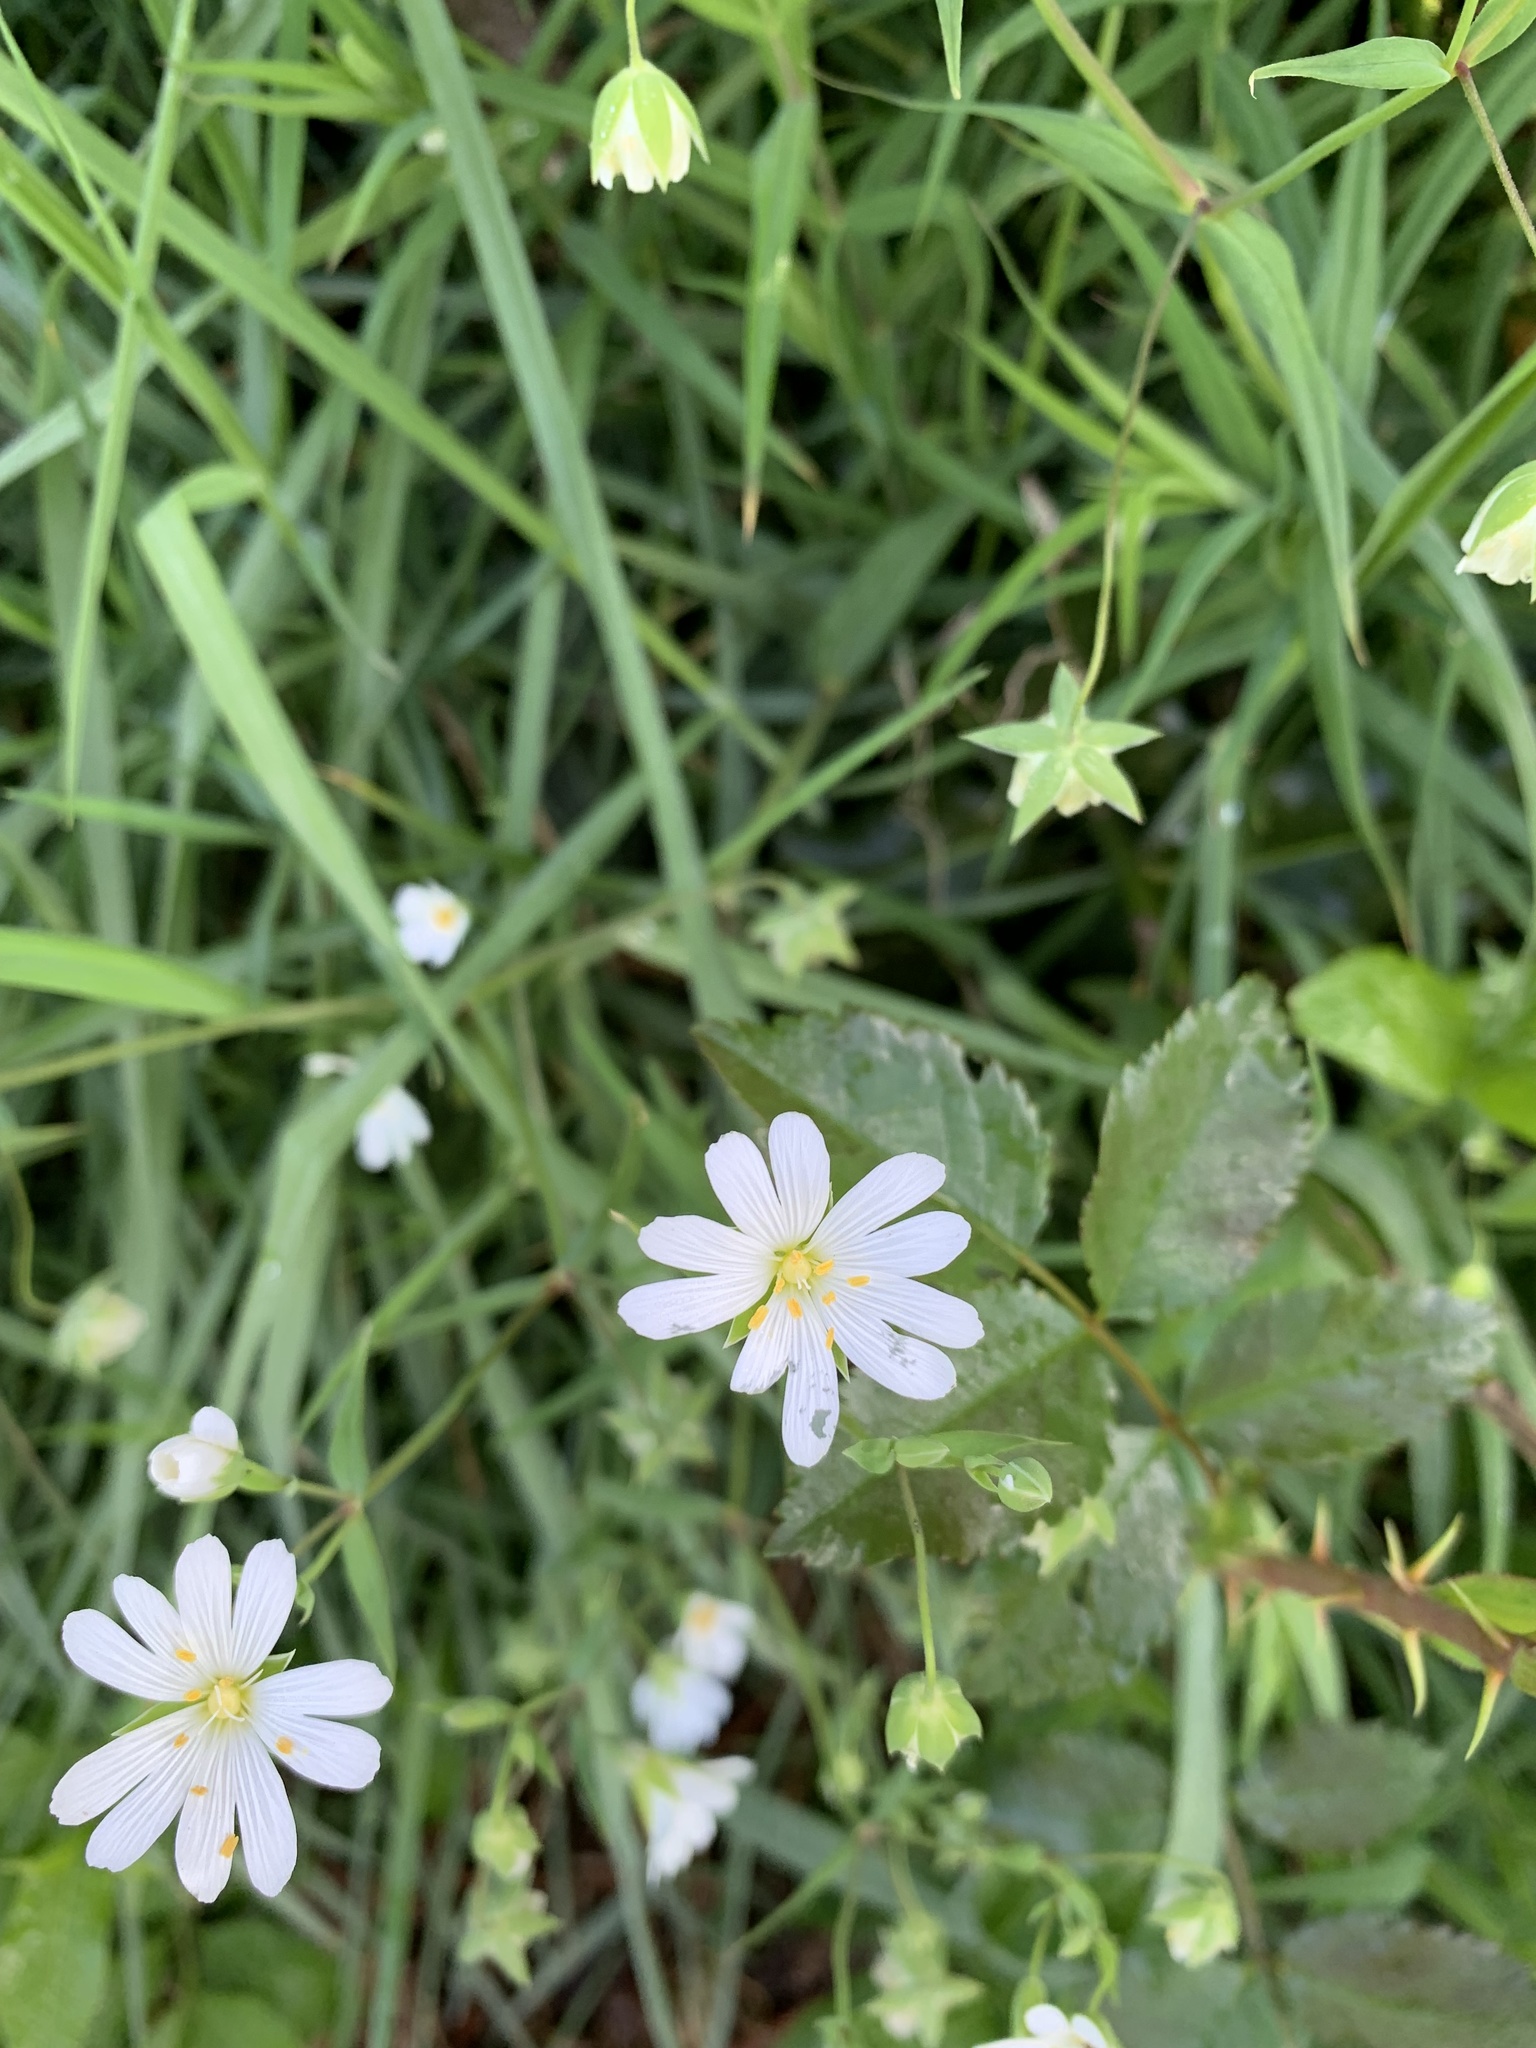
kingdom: Plantae
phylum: Tracheophyta
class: Magnoliopsida
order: Caryophyllales
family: Caryophyllaceae
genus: Rabelera
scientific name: Rabelera holostea
